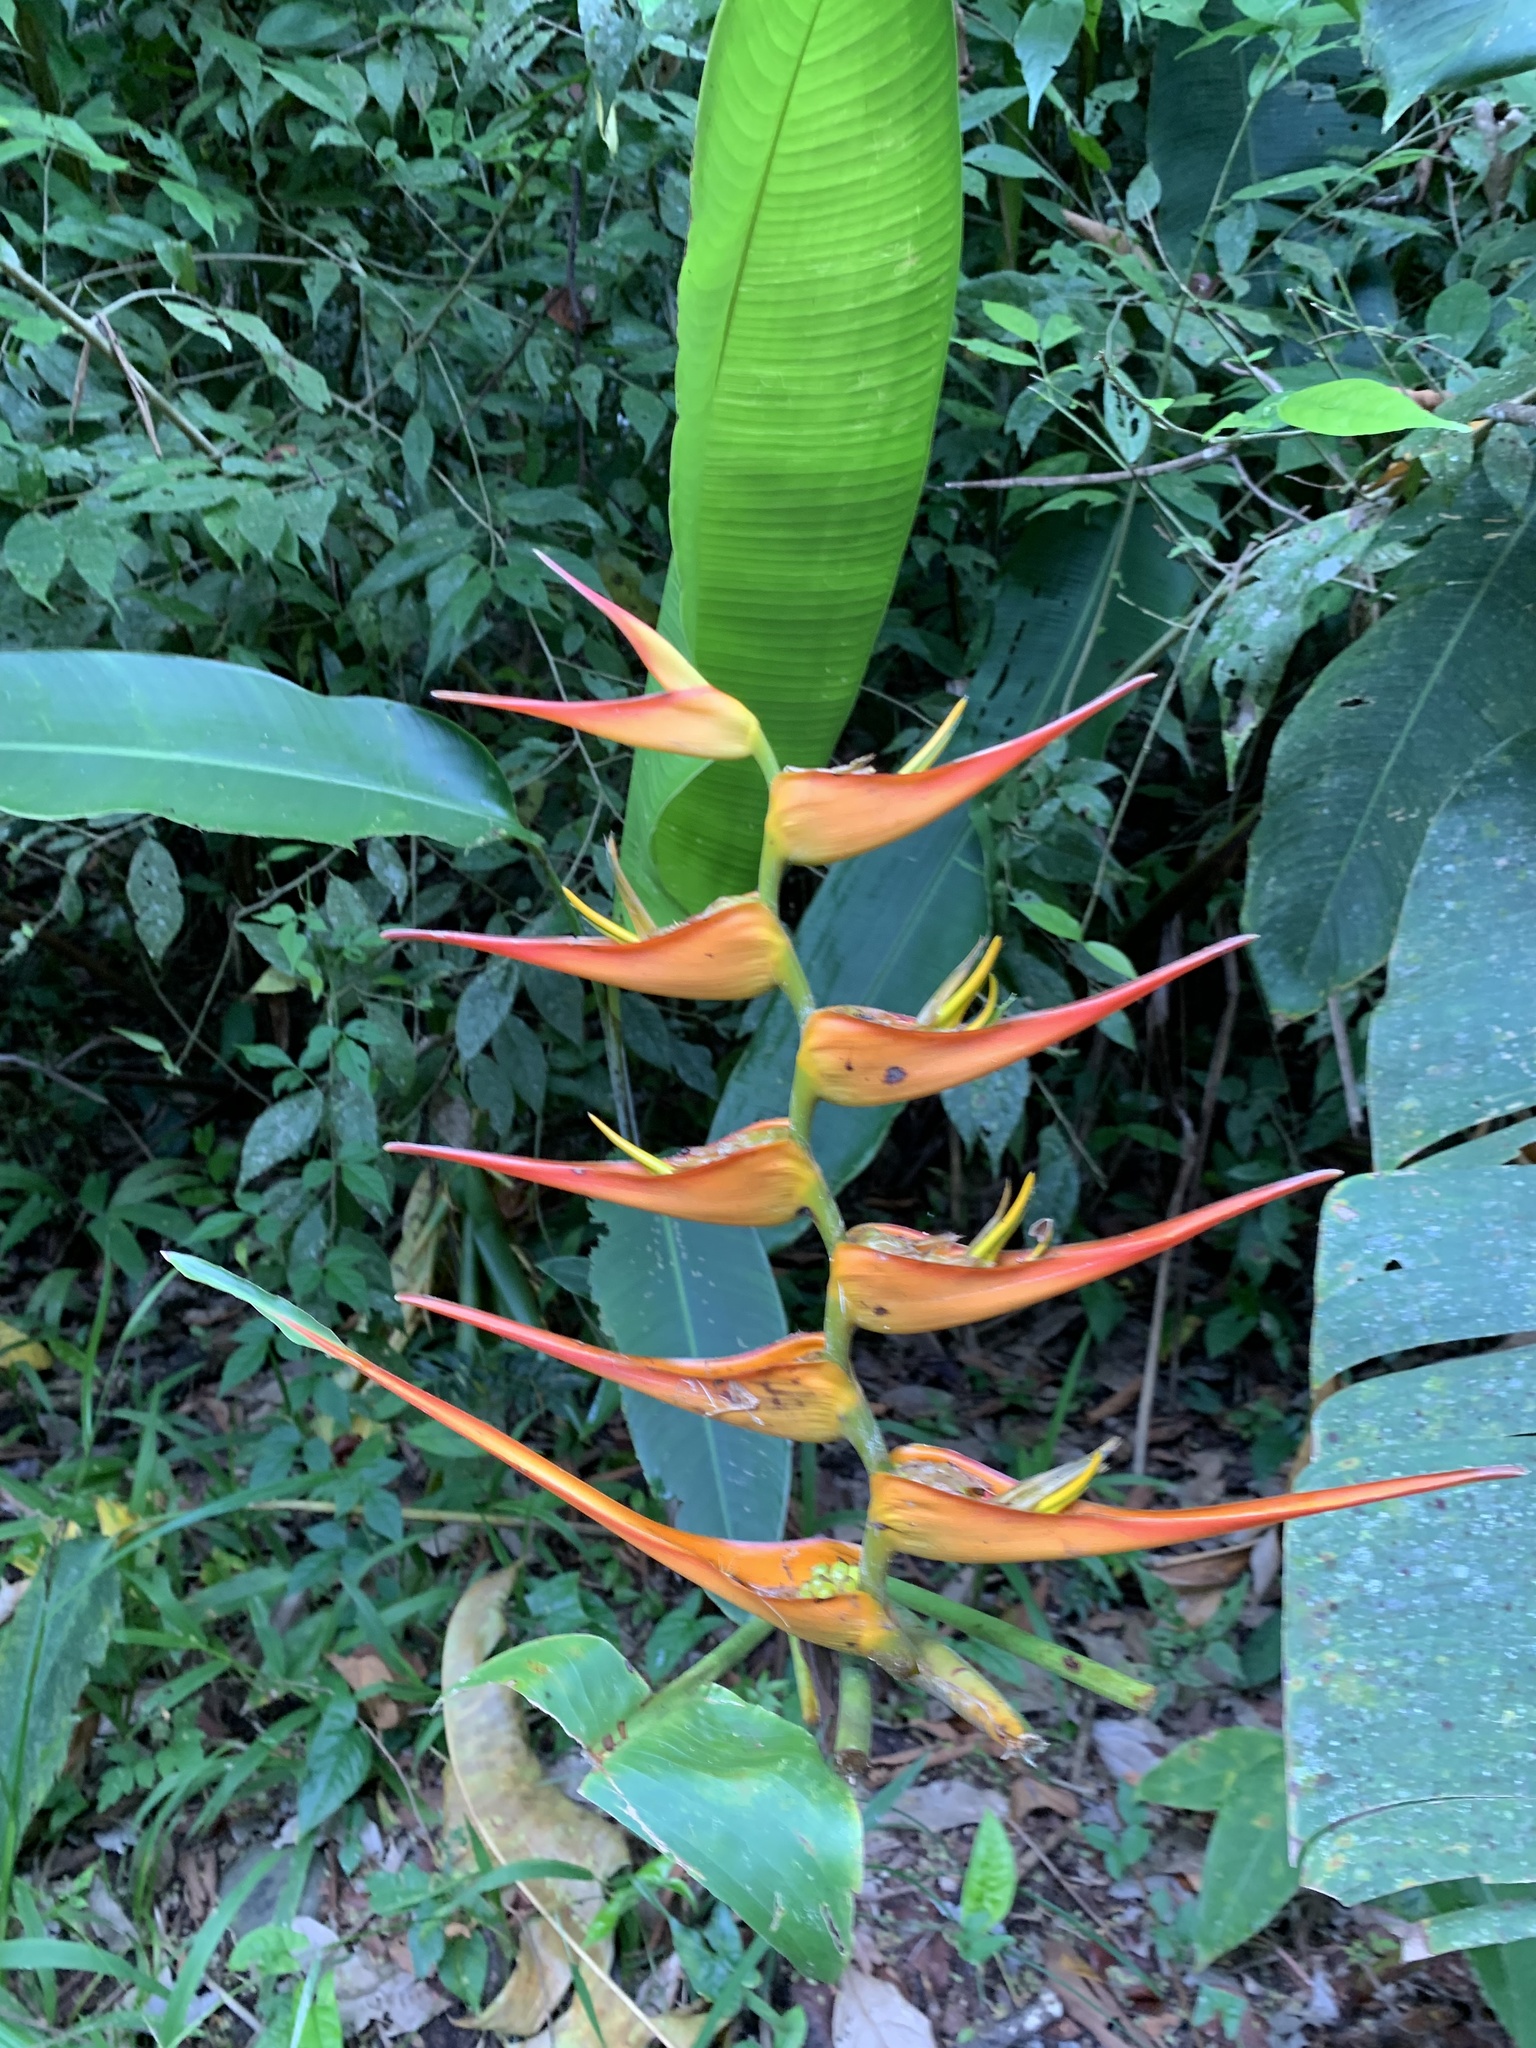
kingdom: Plantae
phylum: Tracheophyta
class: Liliopsida
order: Zingiberales
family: Heliconiaceae
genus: Heliconia
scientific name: Heliconia latispatha
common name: Expanded lobsterclaw
